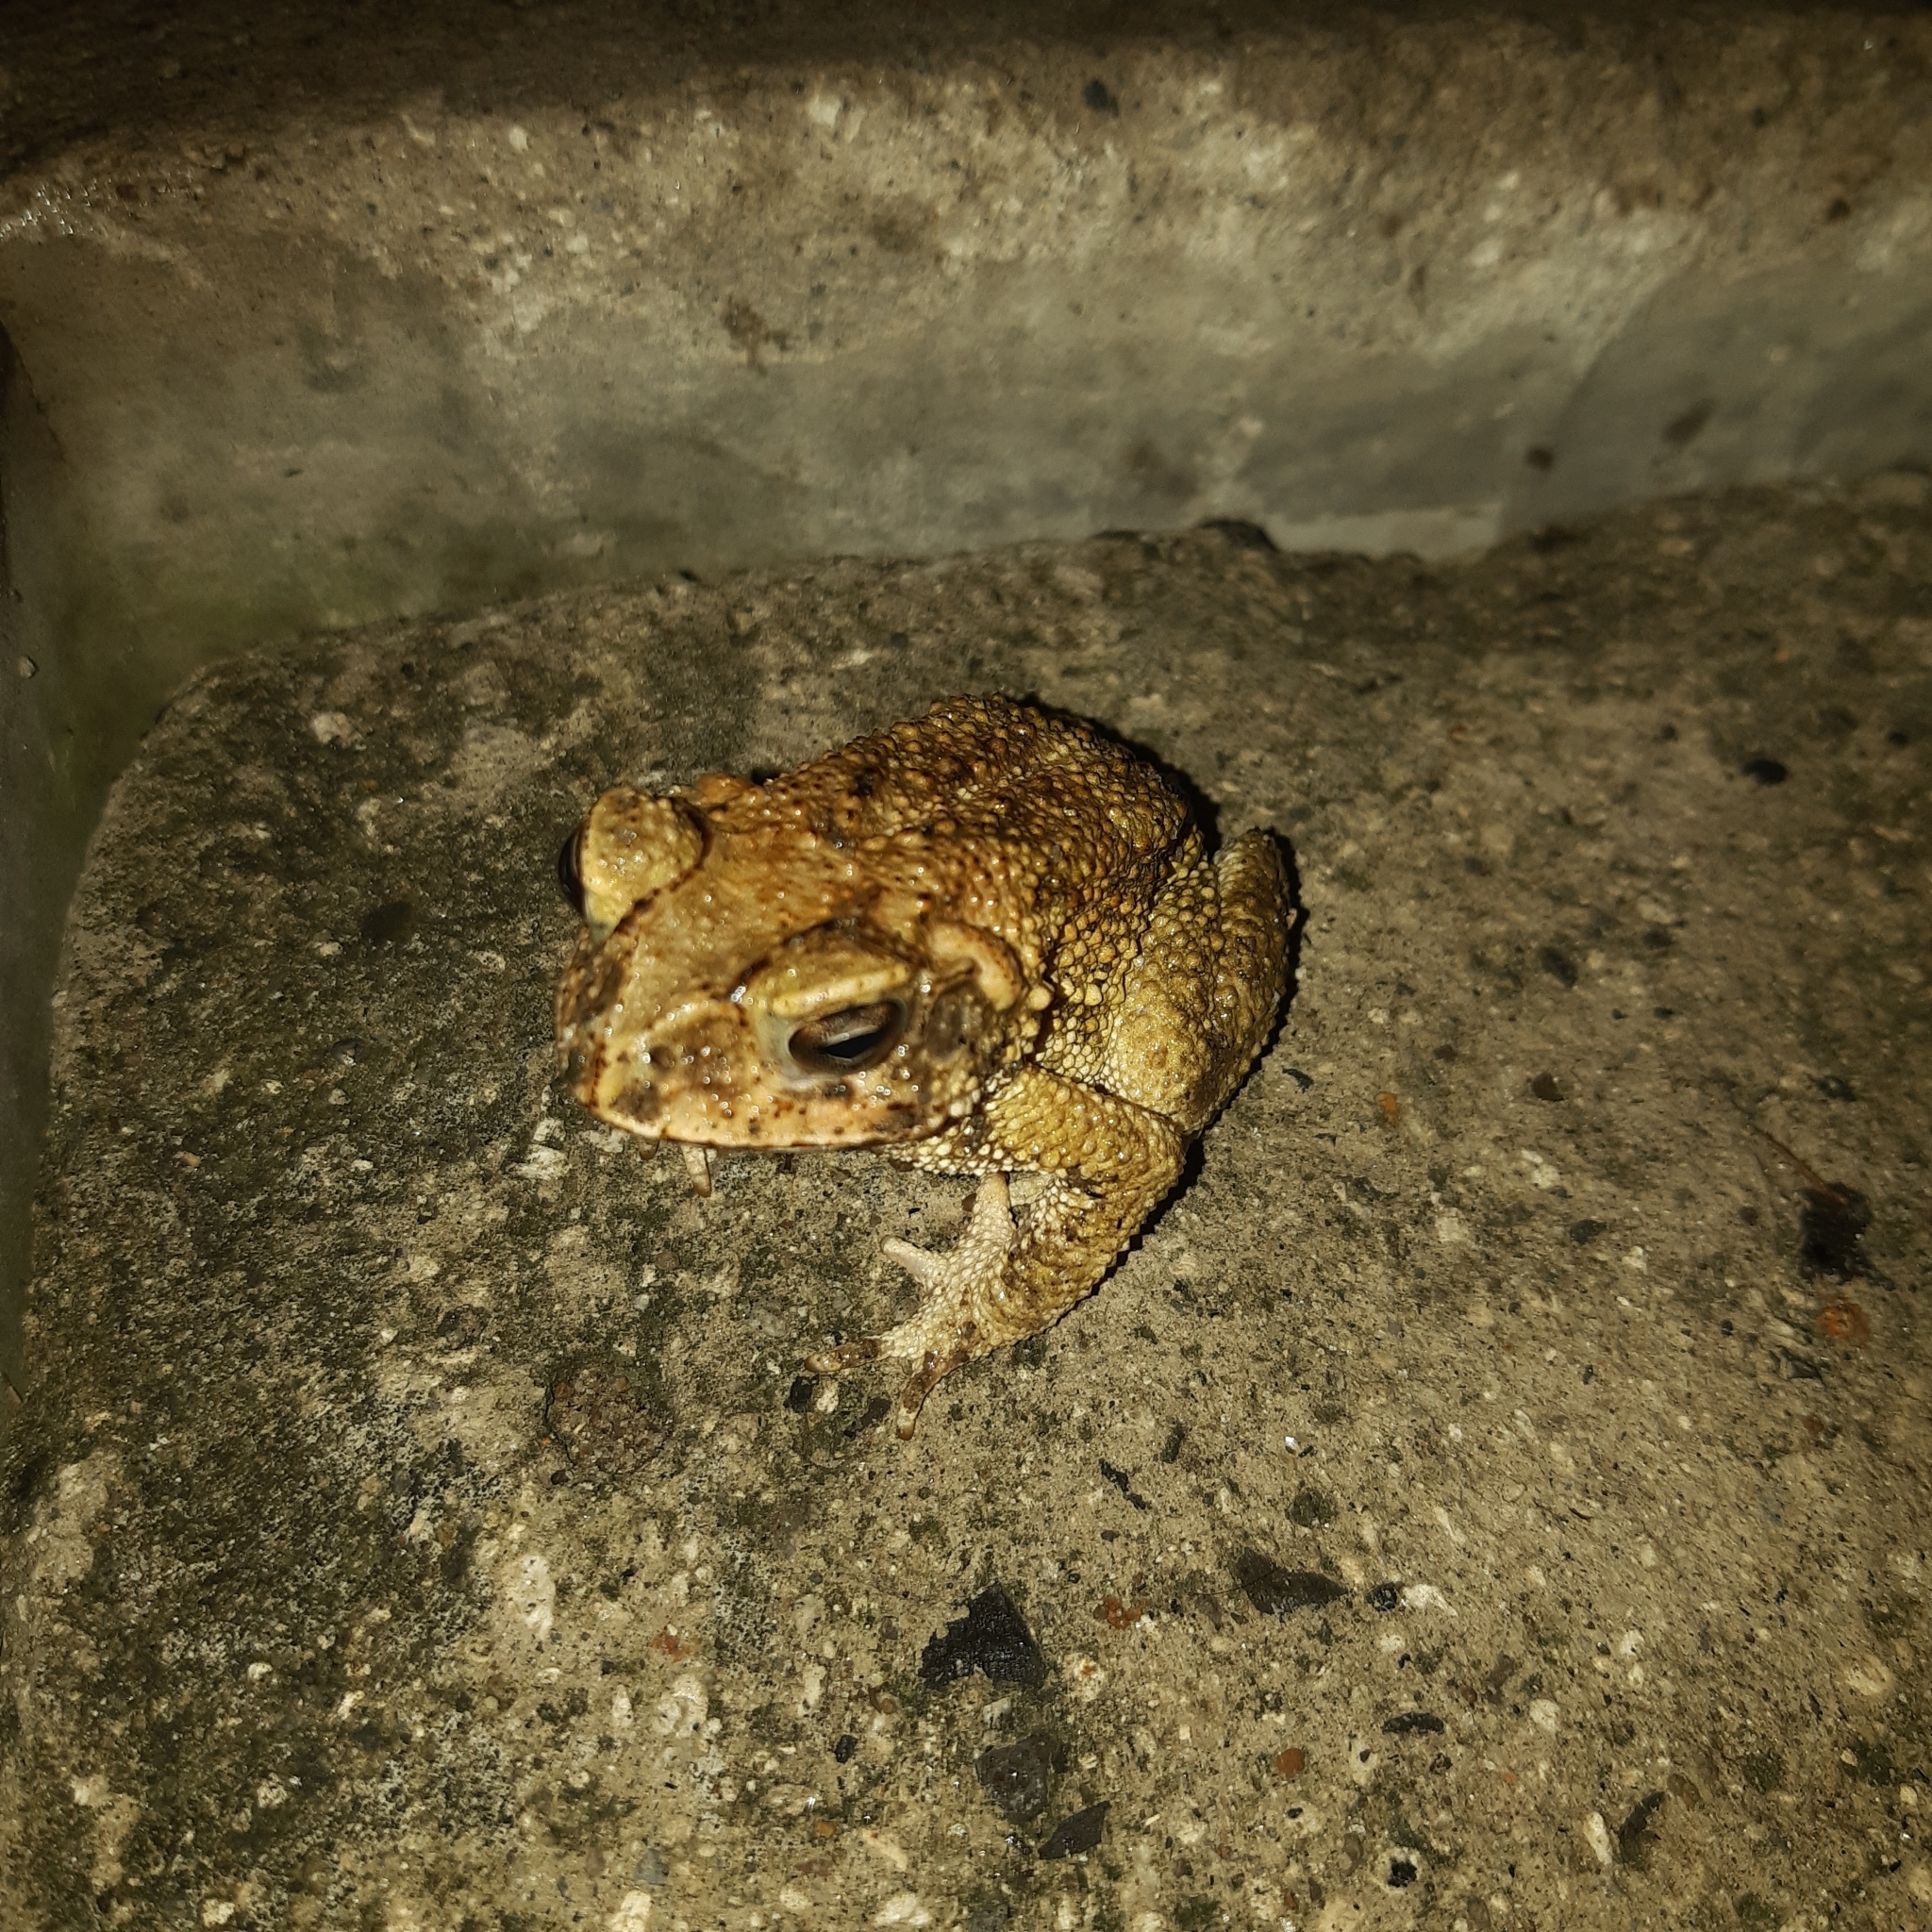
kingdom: Animalia
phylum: Chordata
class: Amphibia
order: Anura
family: Bufonidae
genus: Incilius
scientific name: Incilius luetkenii
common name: Yellow toad
